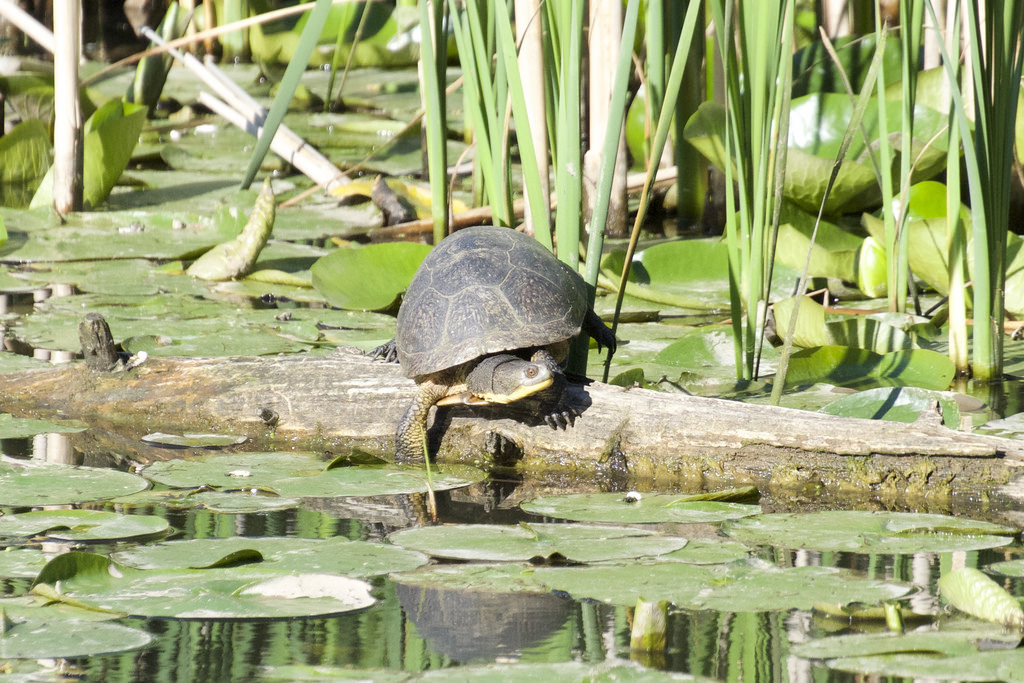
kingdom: Animalia
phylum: Chordata
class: Testudines
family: Emydidae
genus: Emys
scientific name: Emys blandingii
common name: Blanding's turtle
